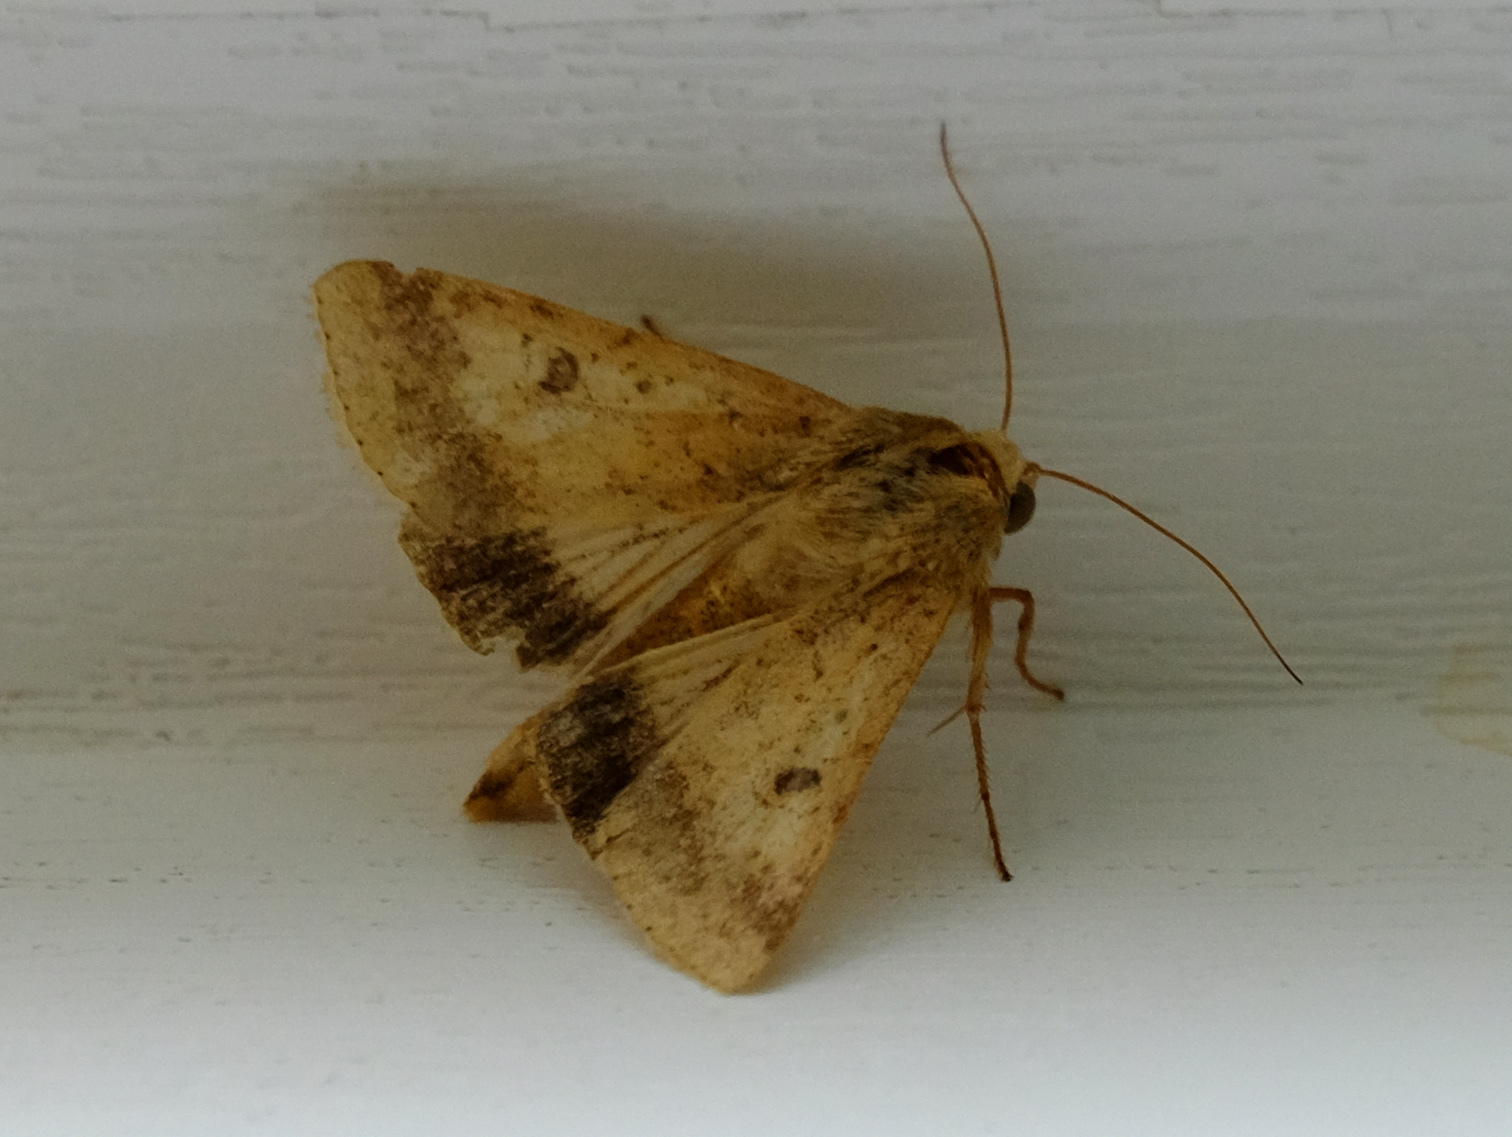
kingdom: Animalia
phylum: Arthropoda
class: Insecta
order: Lepidoptera
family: Noctuidae
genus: Helicoverpa
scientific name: Helicoverpa armigera
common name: Cotton bollworm
